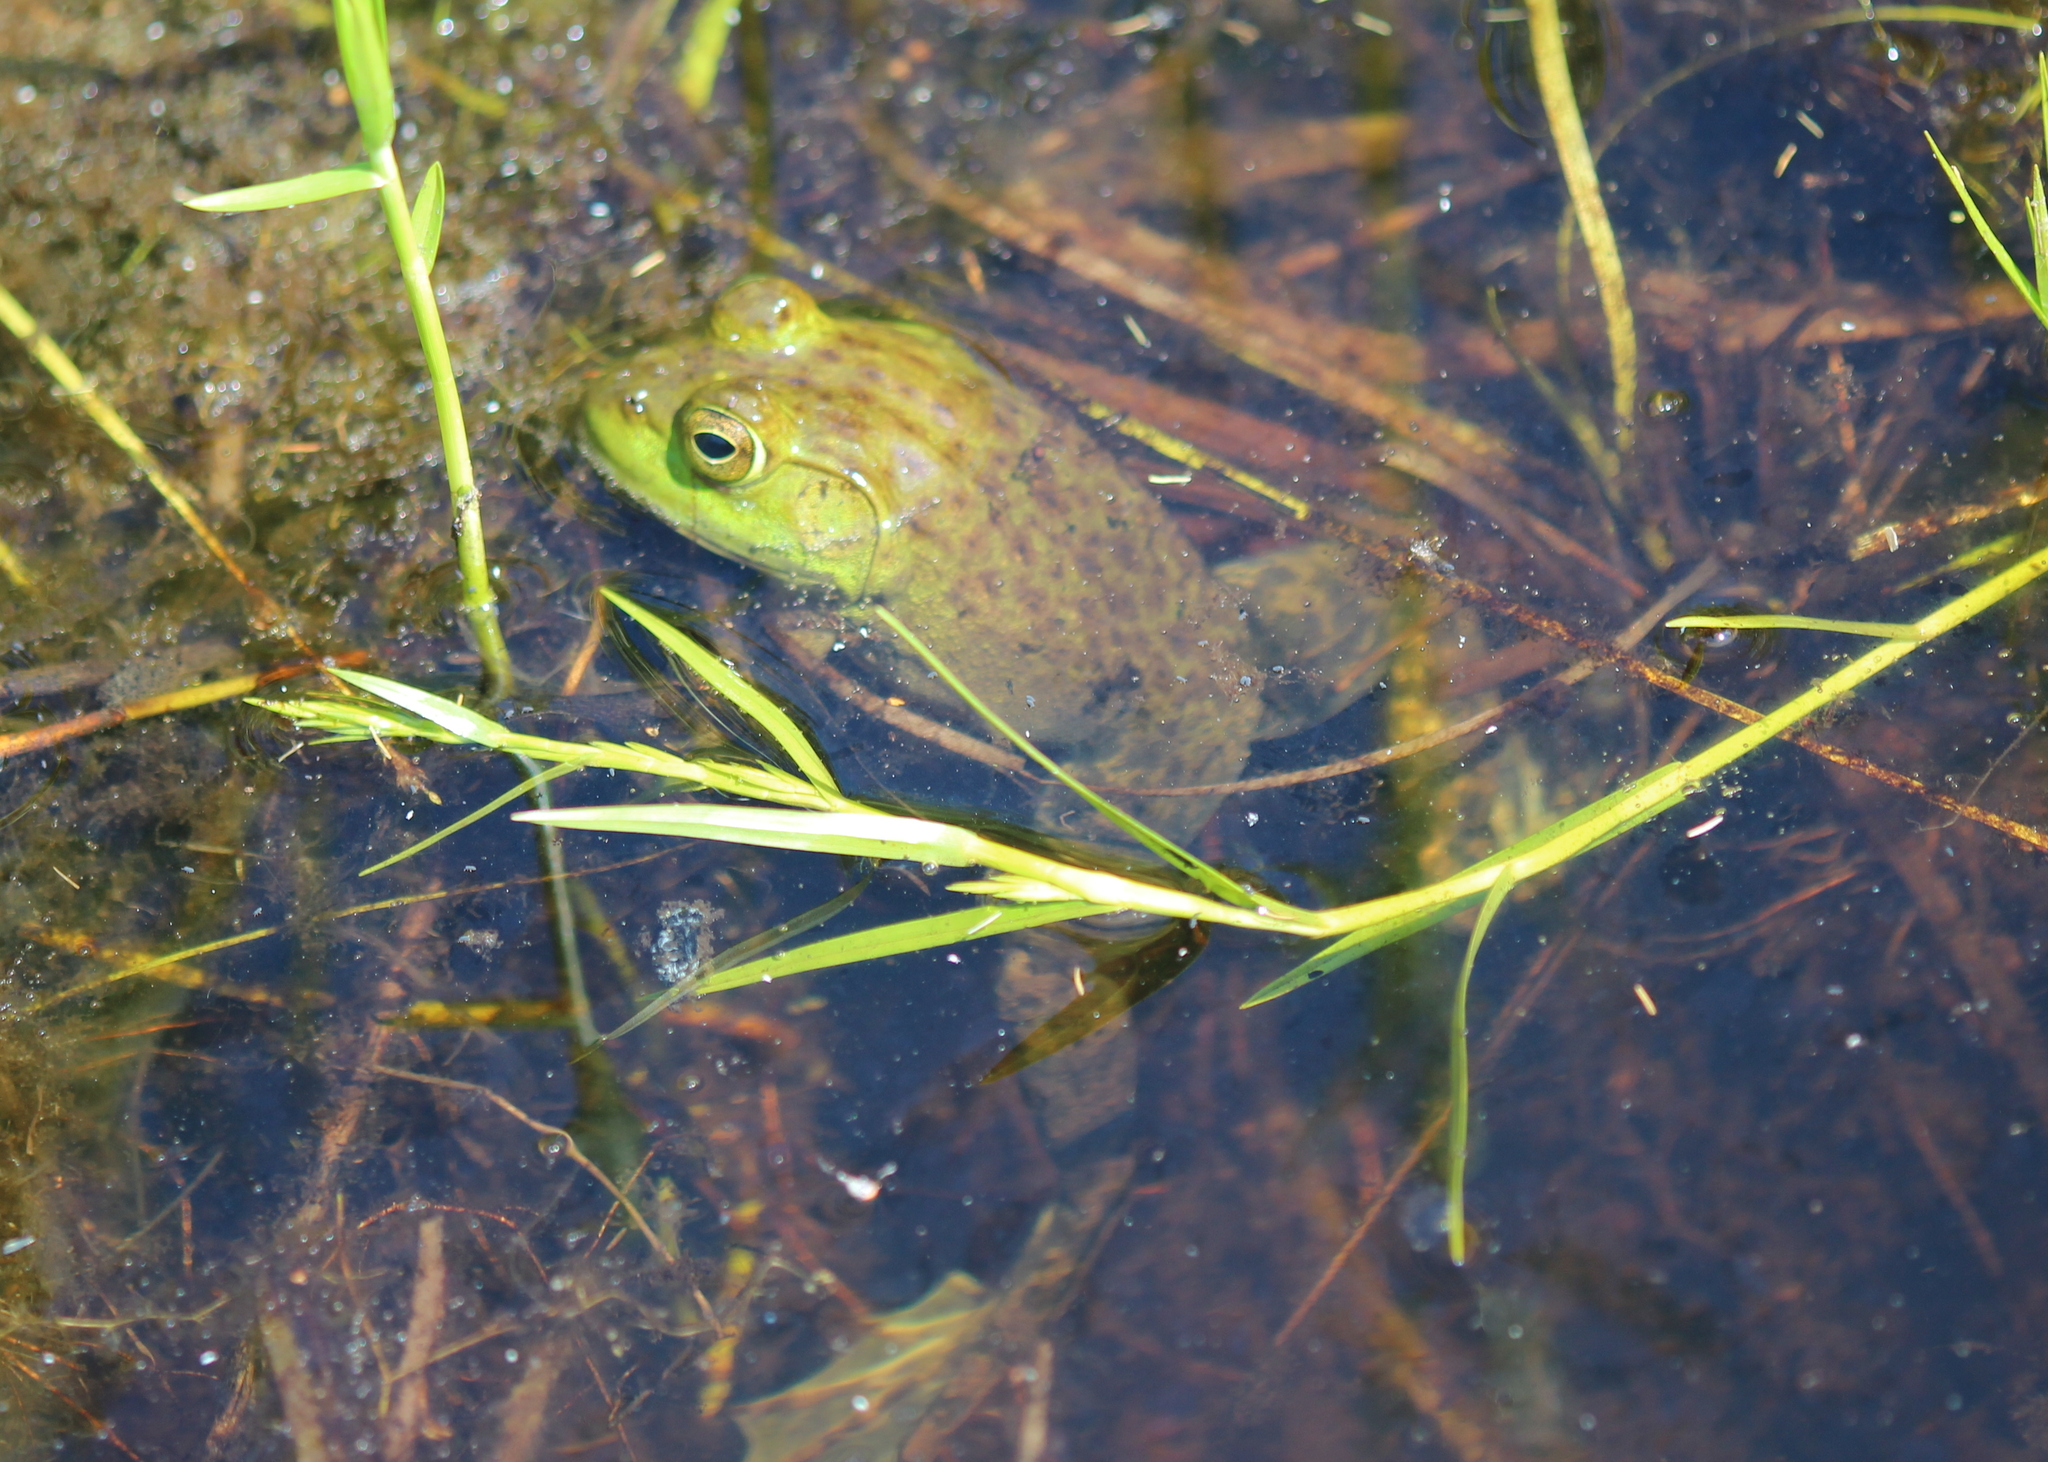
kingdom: Animalia
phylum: Chordata
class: Amphibia
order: Anura
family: Ranidae
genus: Lithobates
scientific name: Lithobates catesbeianus
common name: American bullfrog
